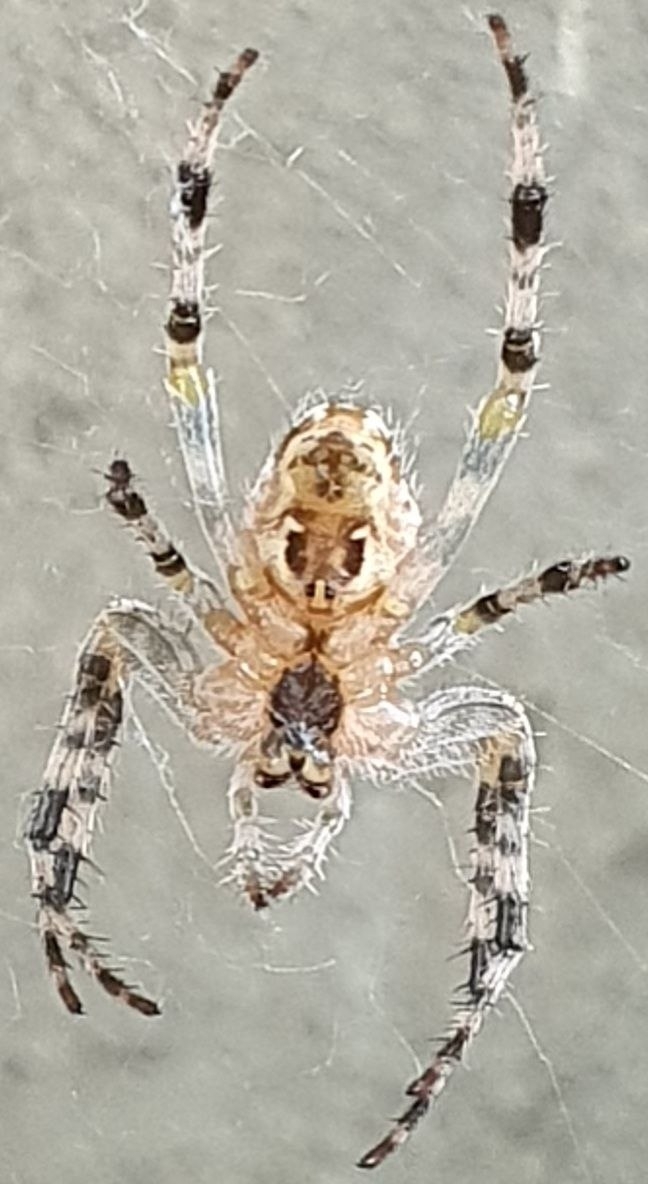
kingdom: Animalia
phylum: Arthropoda
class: Arachnida
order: Araneae
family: Araneidae
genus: Araneus
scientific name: Araneus diadematus
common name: Cross orbweaver
